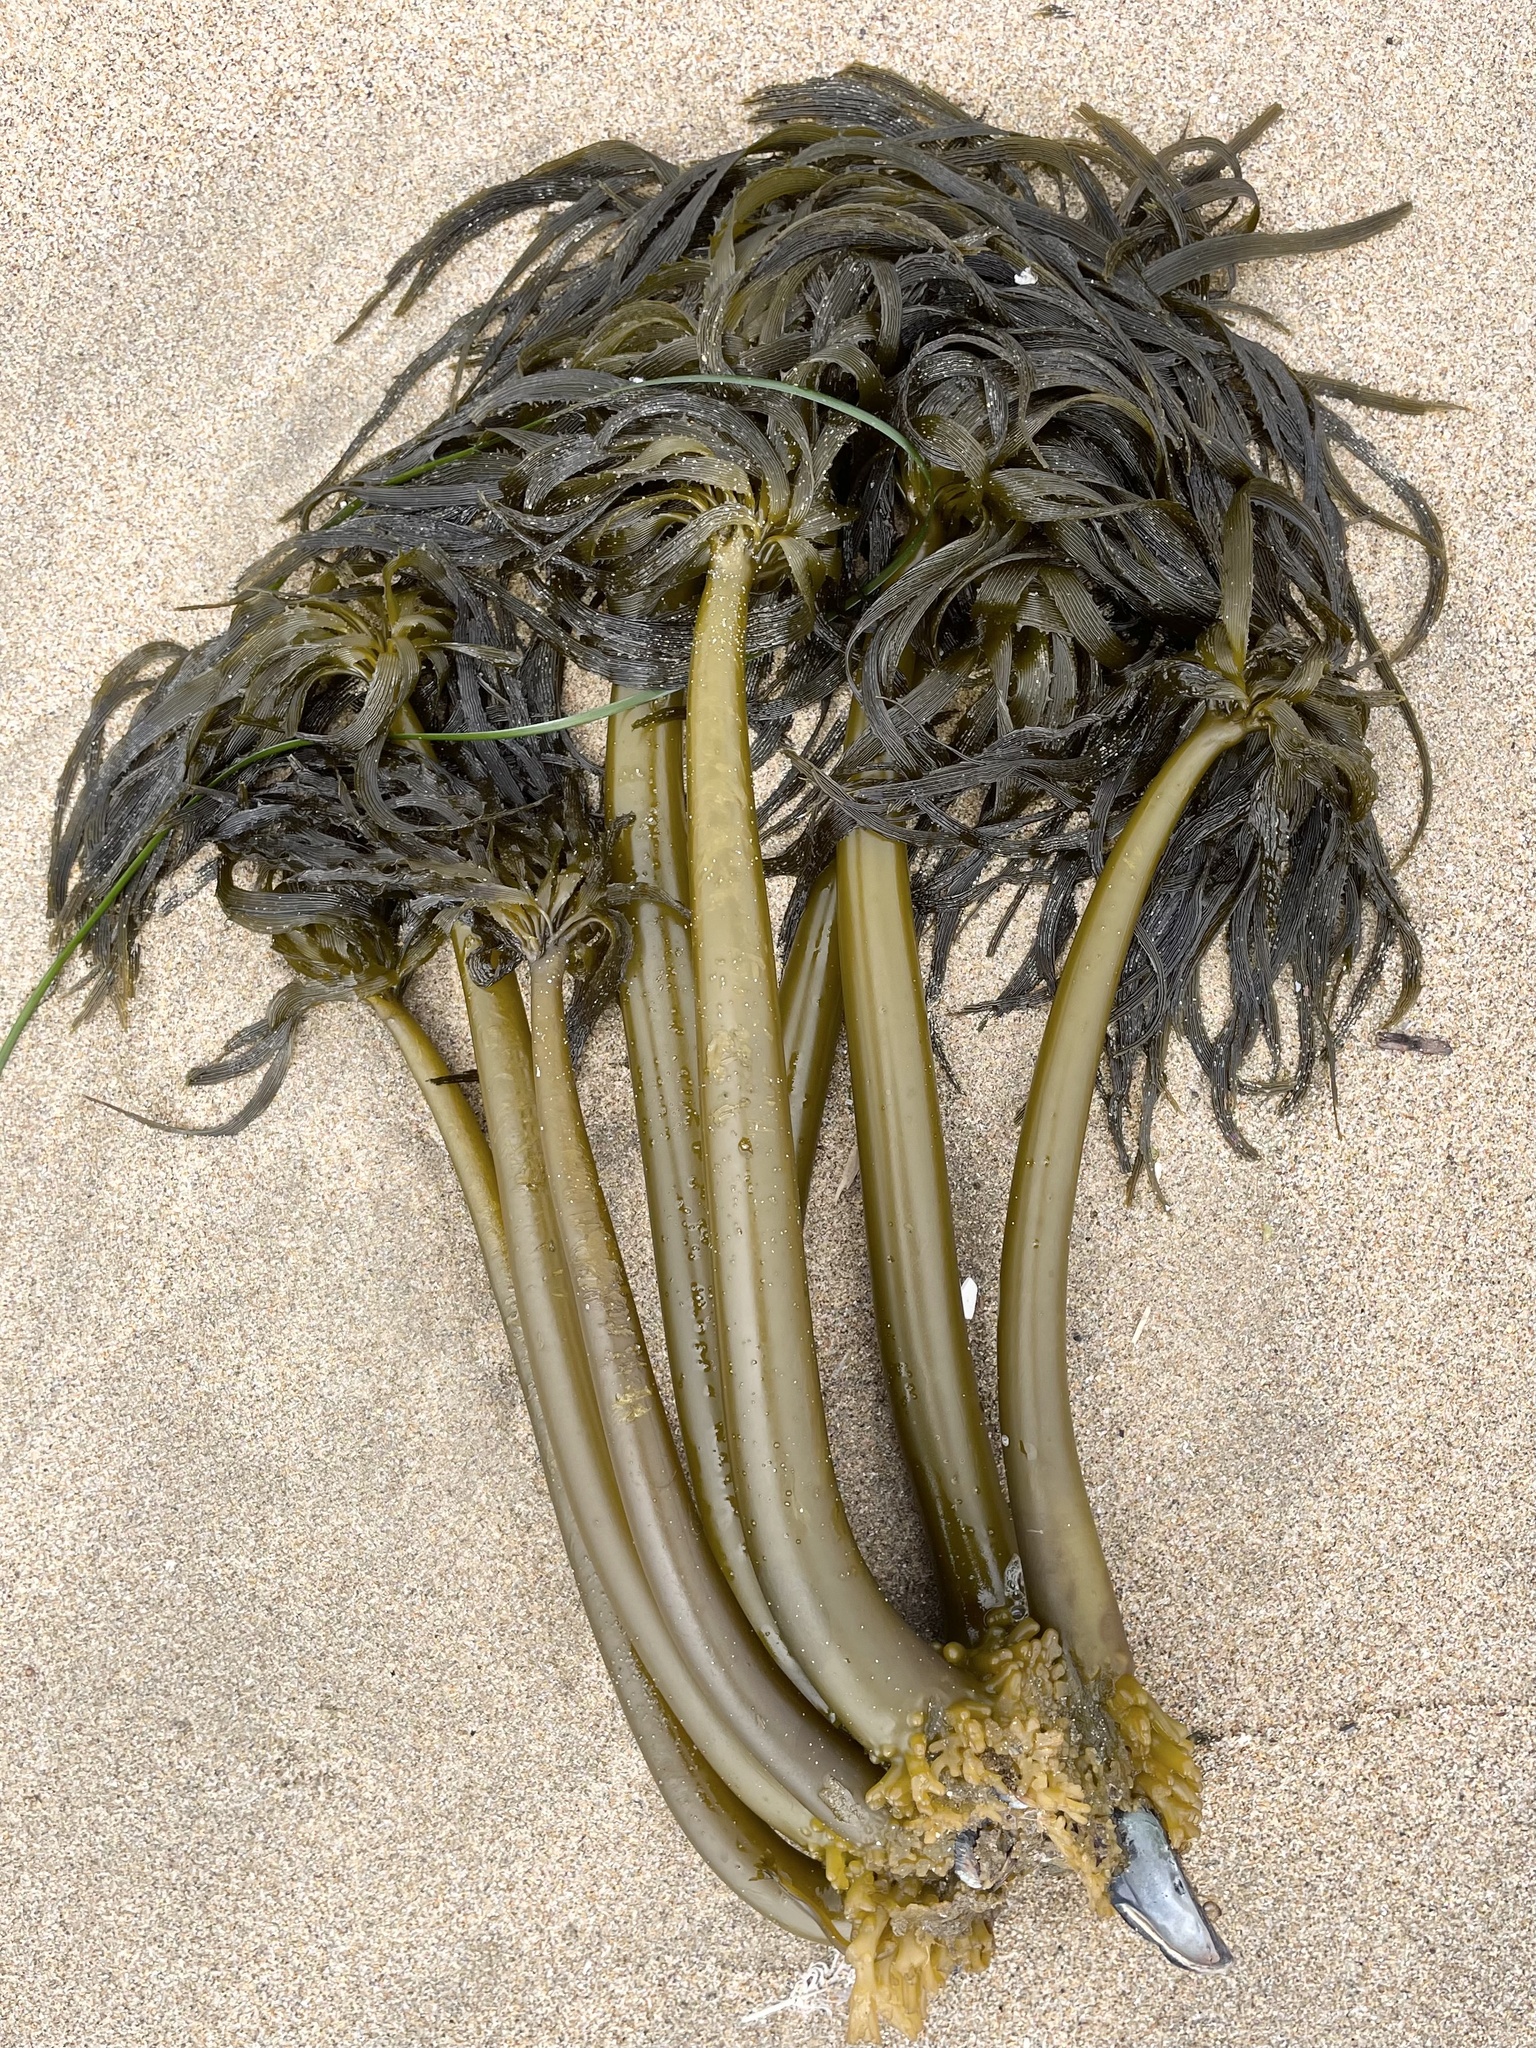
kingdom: Chromista
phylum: Ochrophyta
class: Phaeophyceae
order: Laminariales
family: Laminariaceae
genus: Postelsia
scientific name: Postelsia palmiformis
